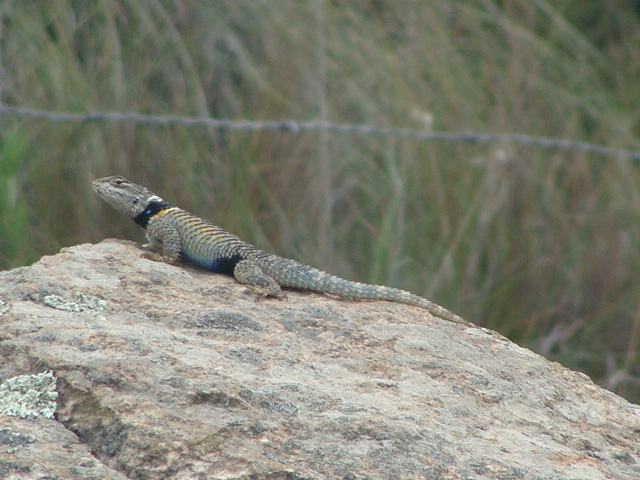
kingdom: Animalia
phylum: Chordata
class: Squamata
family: Phrynosomatidae
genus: Sceloporus
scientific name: Sceloporus mucronatus
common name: Central cleft lizard
